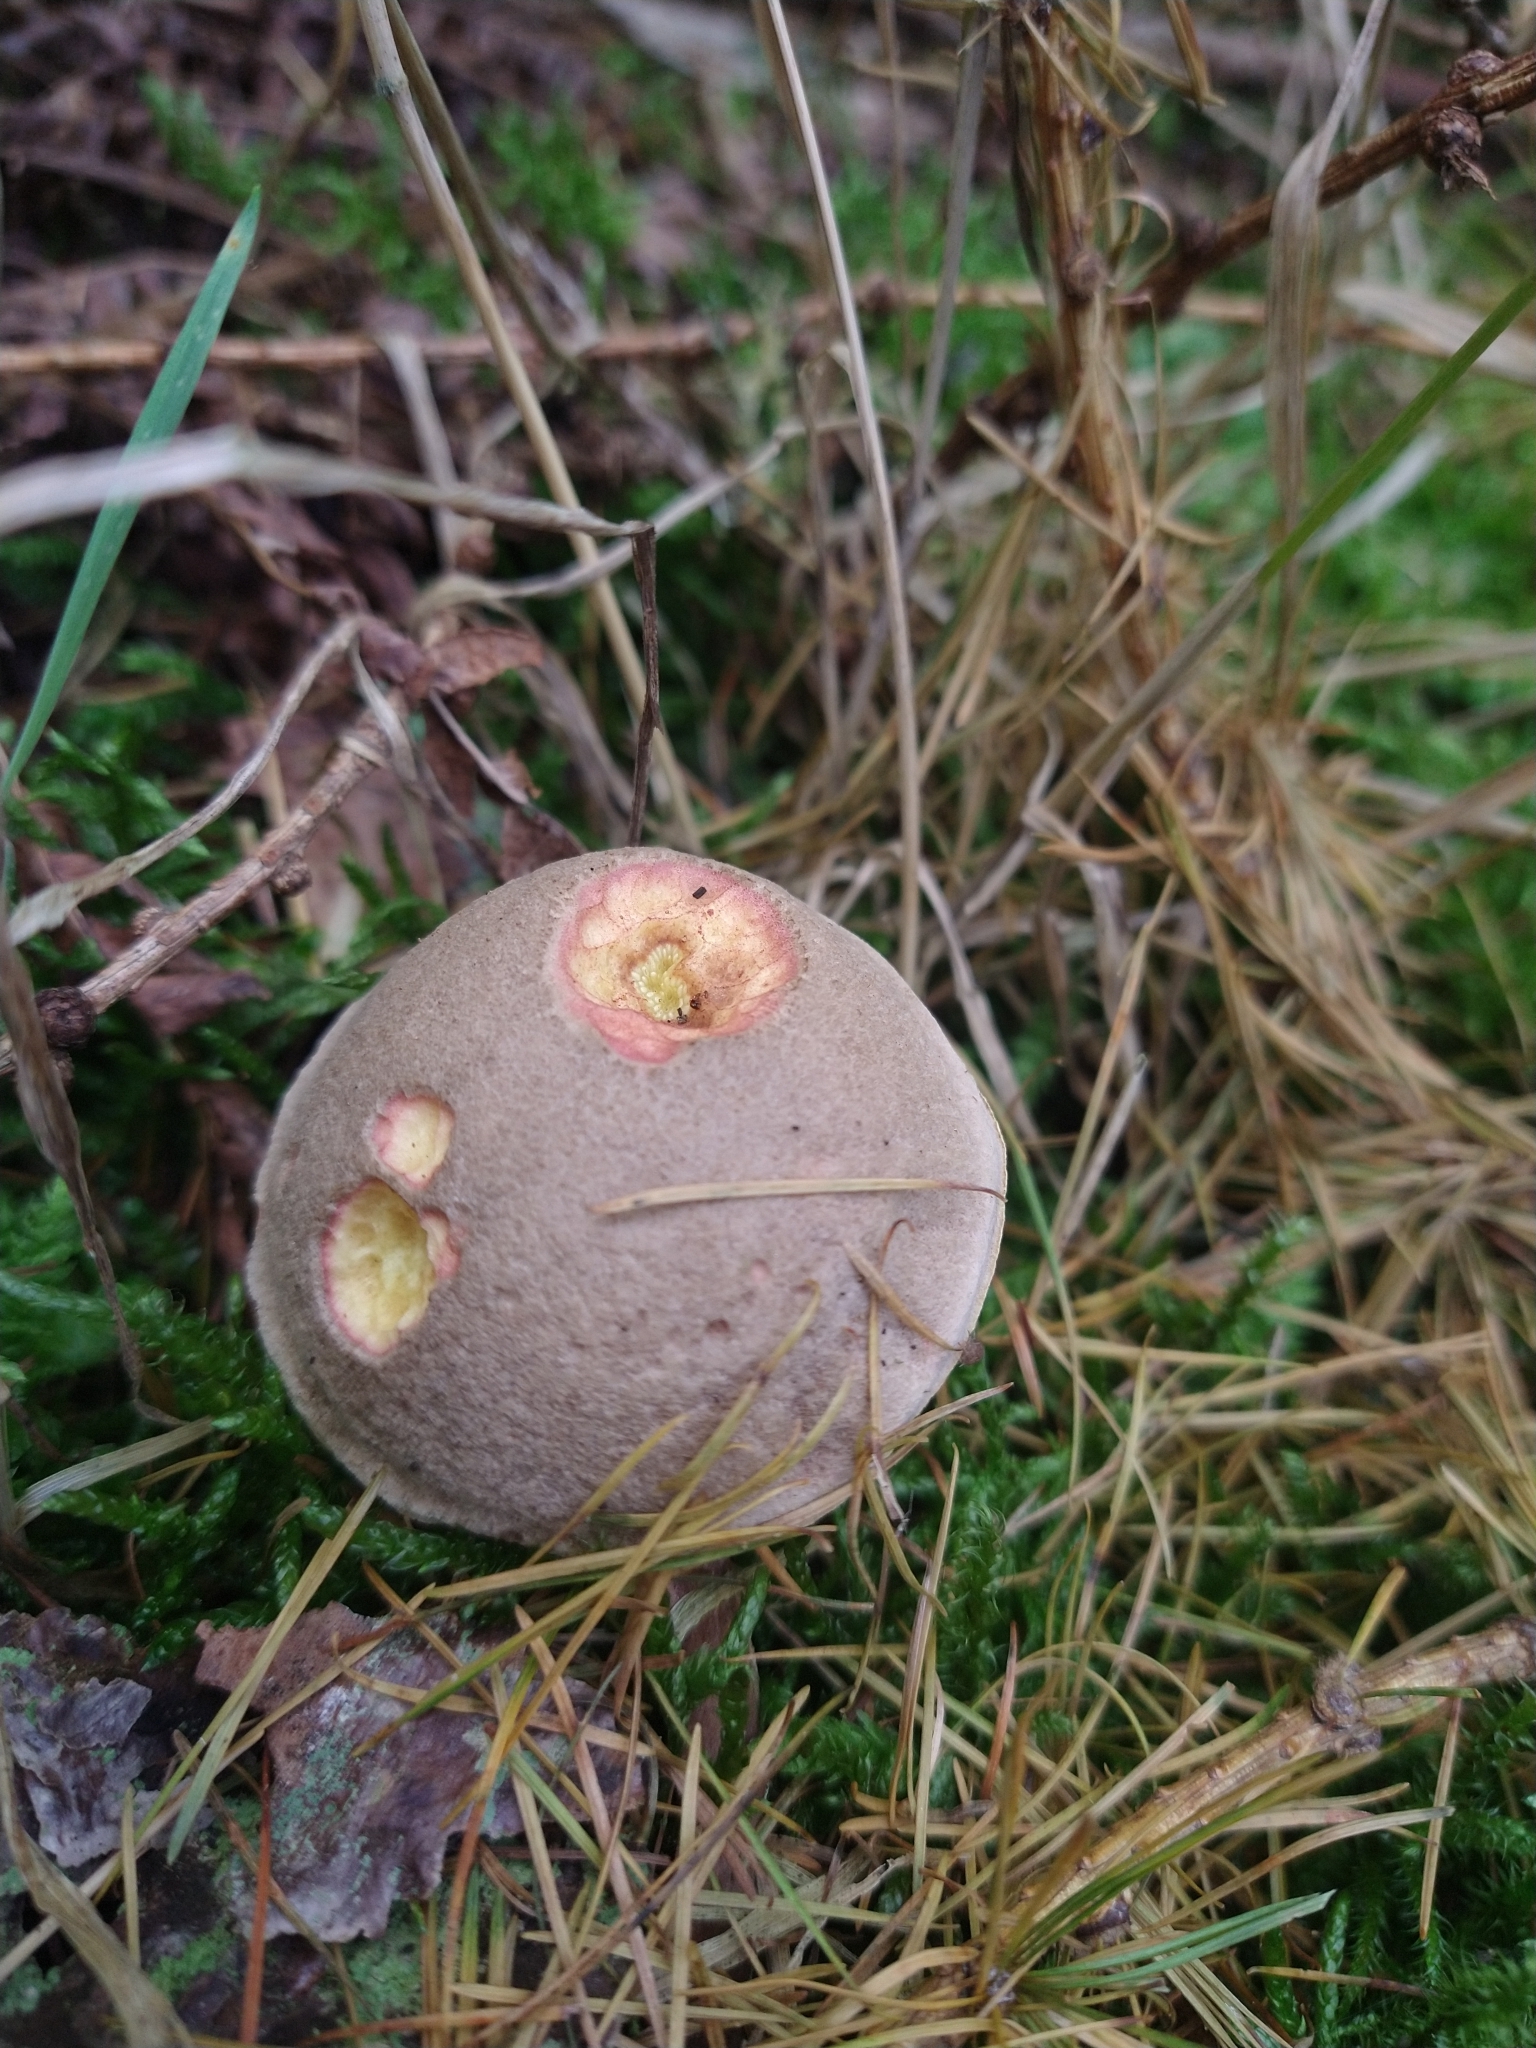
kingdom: Fungi
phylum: Basidiomycota
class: Agaricomycetes
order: Boletales
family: Boletaceae
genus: Xerocomellus
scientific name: Xerocomellus chrysenteron
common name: Red-cracking bolete
